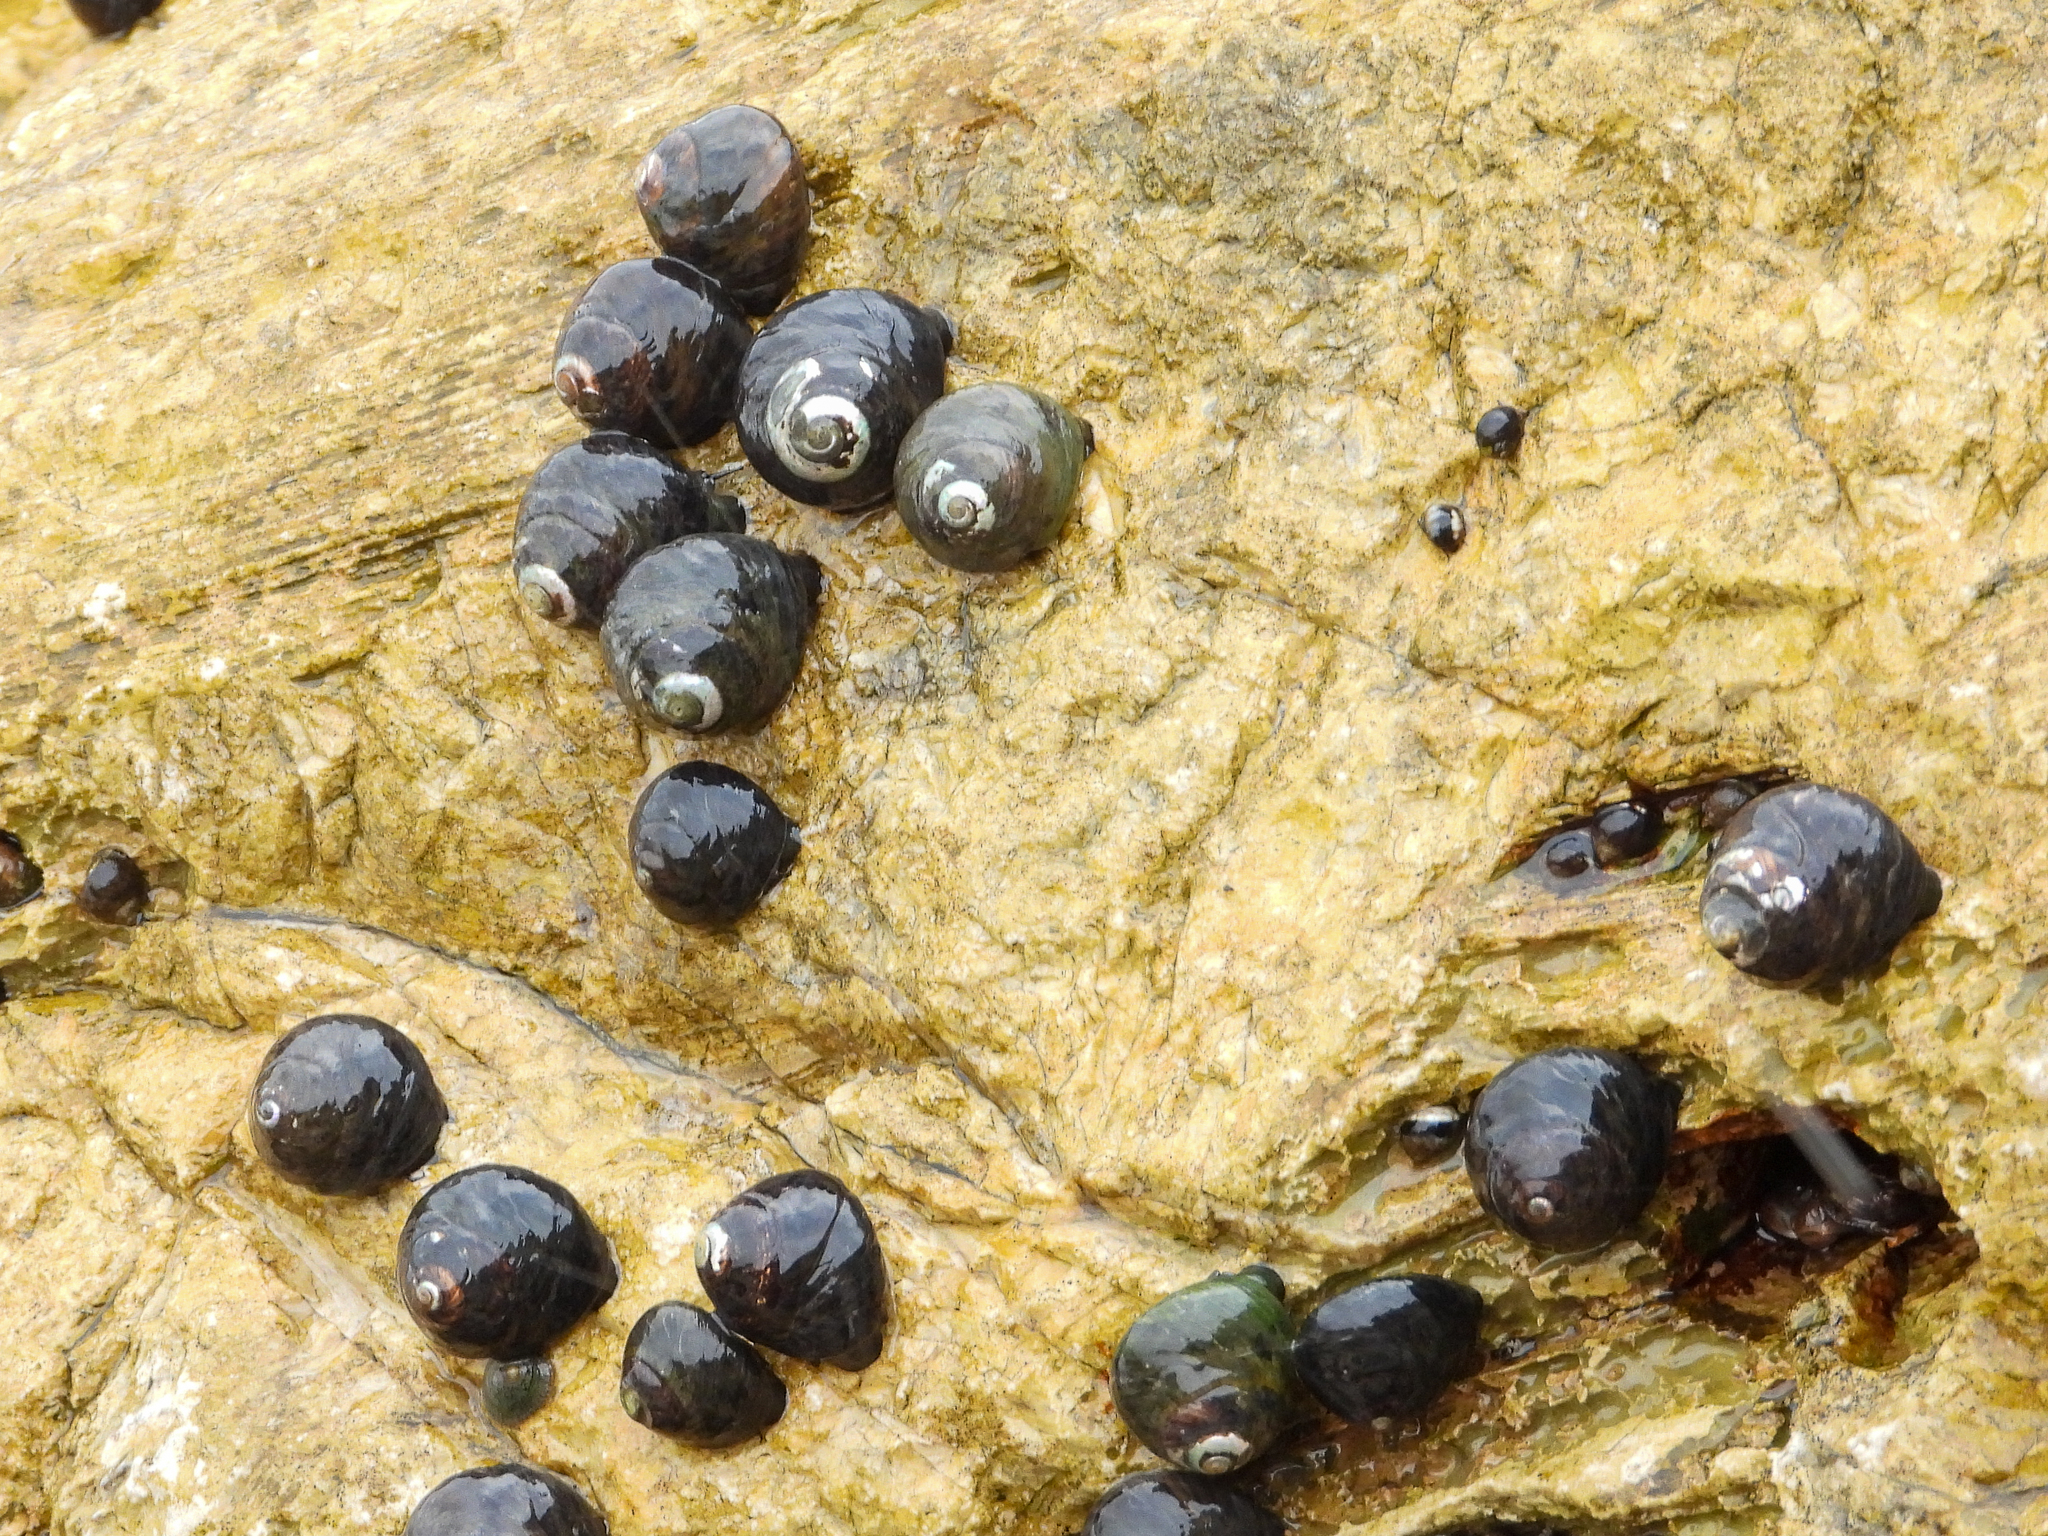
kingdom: Animalia
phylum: Mollusca
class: Gastropoda
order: Trochida
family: Tegulidae
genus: Tegula
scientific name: Tegula funebralis
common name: Black tegula
